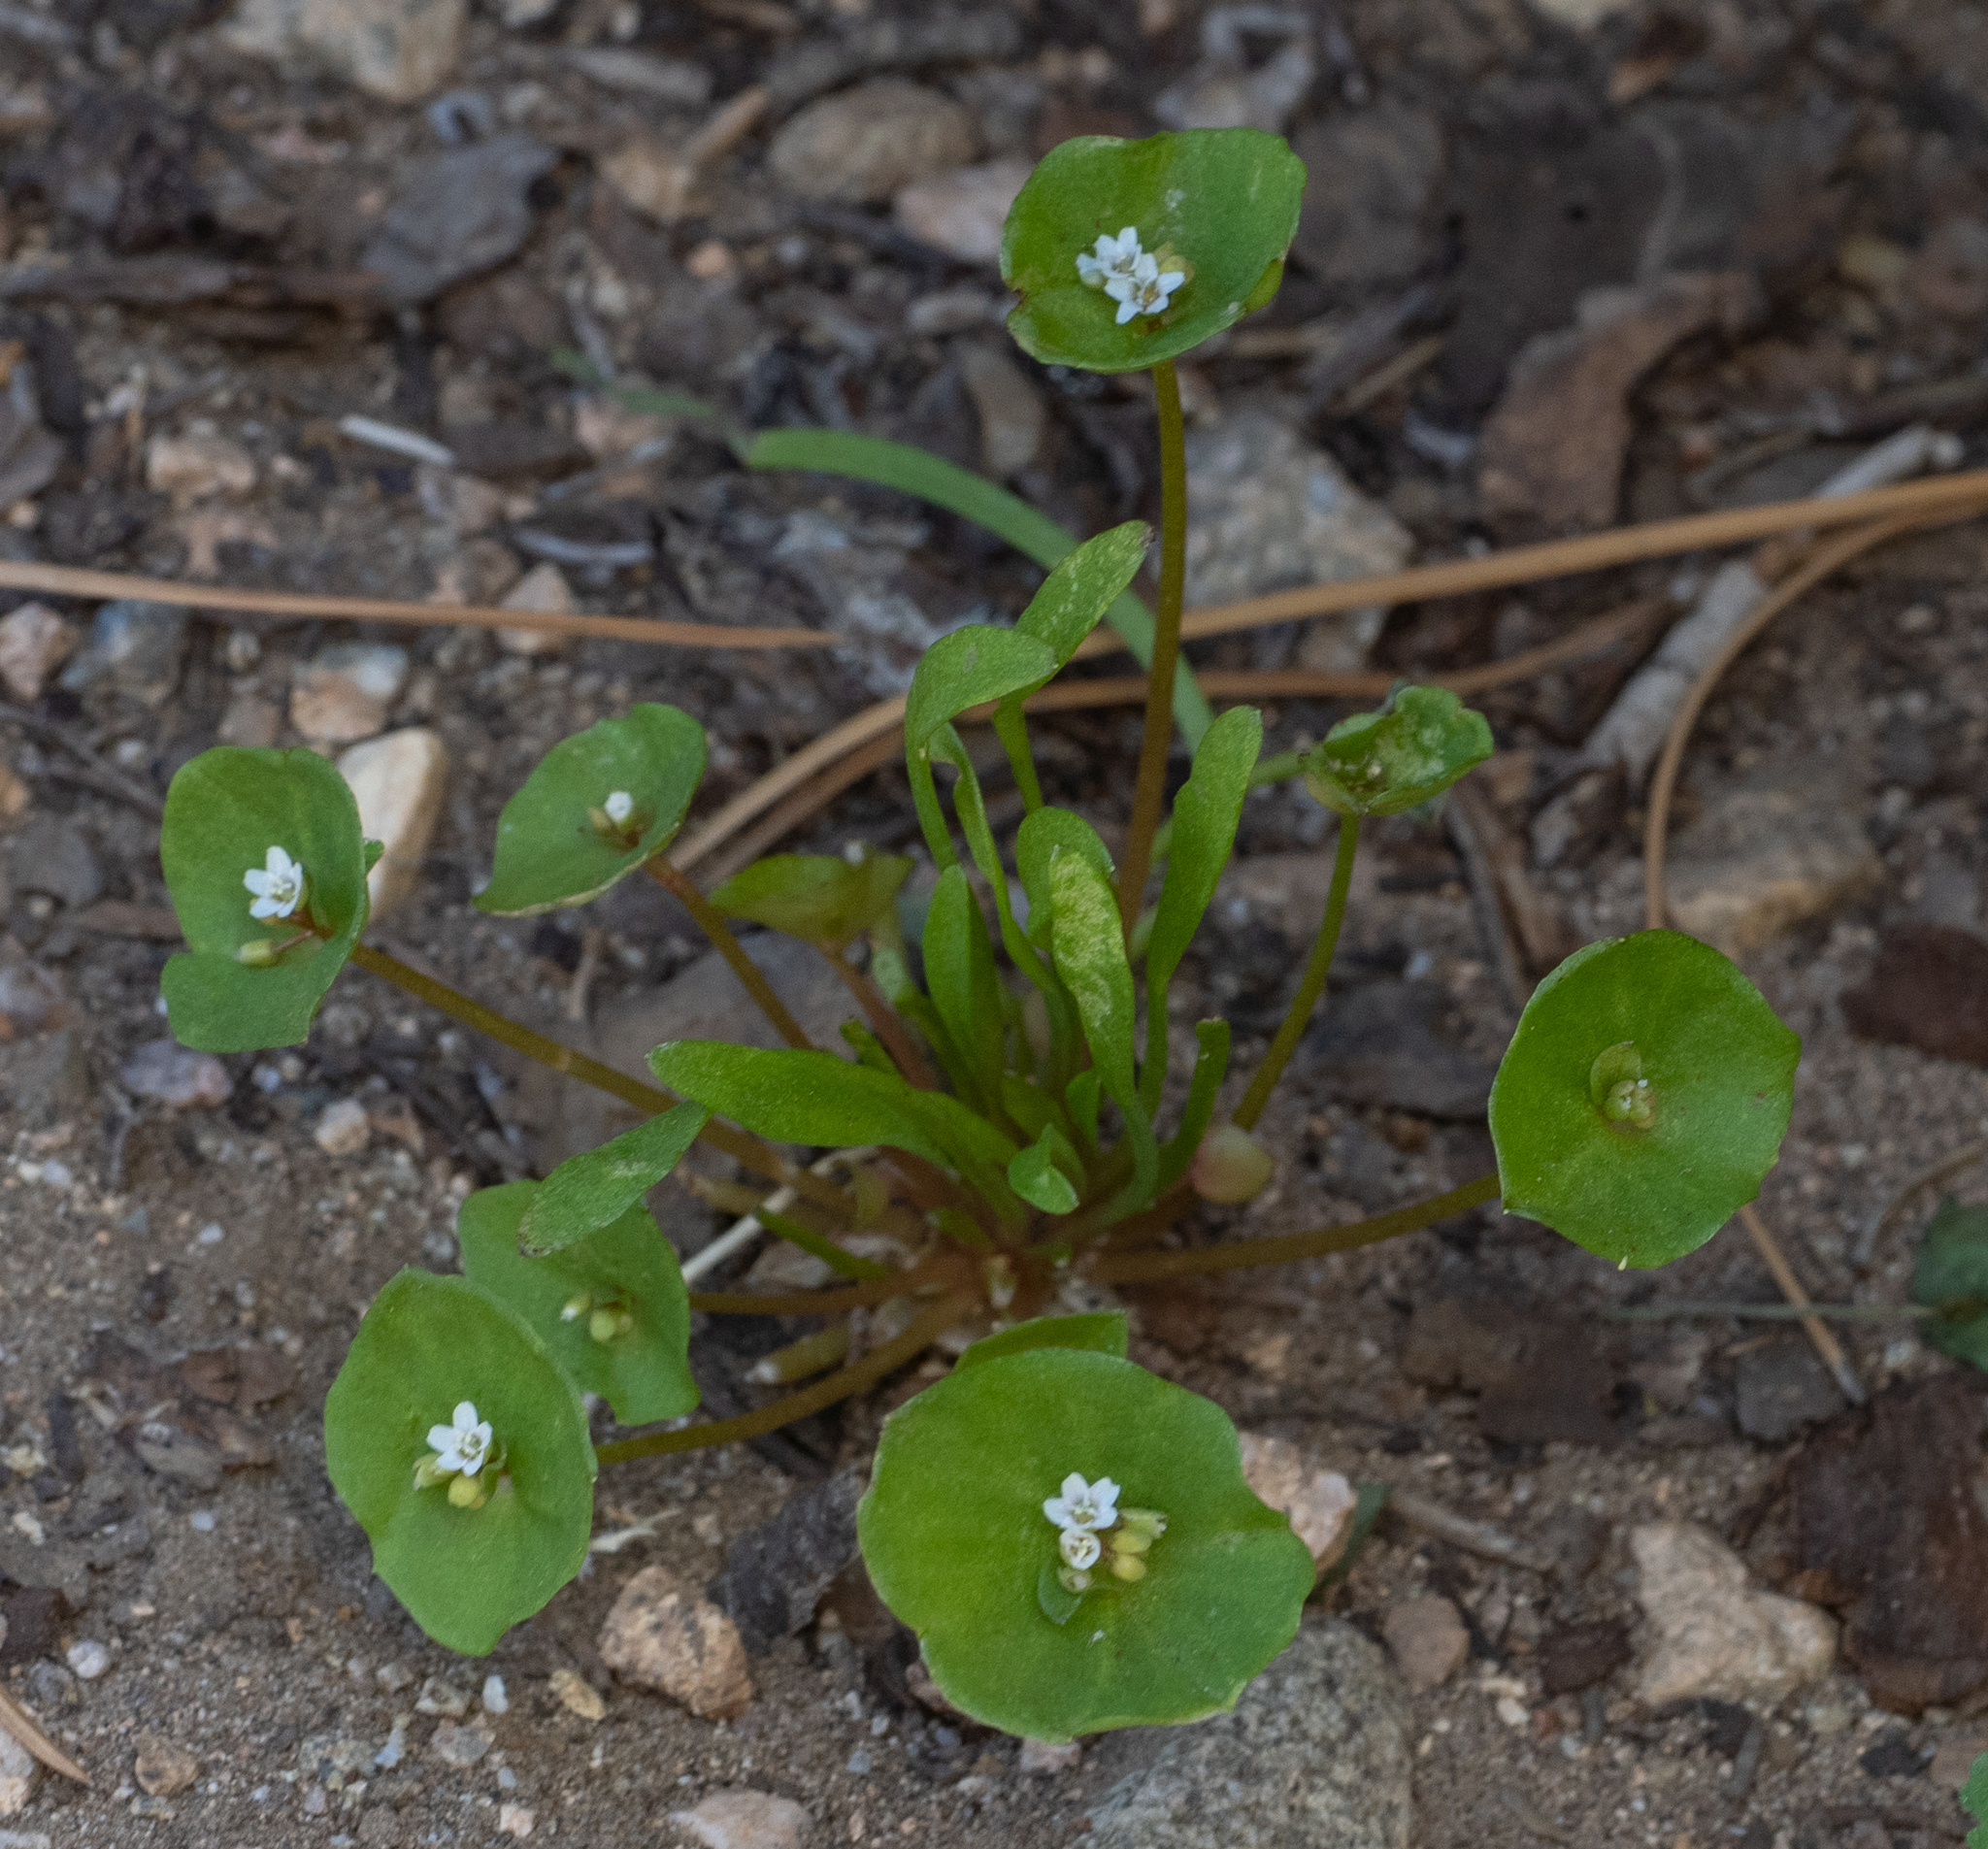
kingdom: Plantae
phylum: Tracheophyta
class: Magnoliopsida
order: Caryophyllales
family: Montiaceae
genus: Claytonia
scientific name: Claytonia perfoliata
